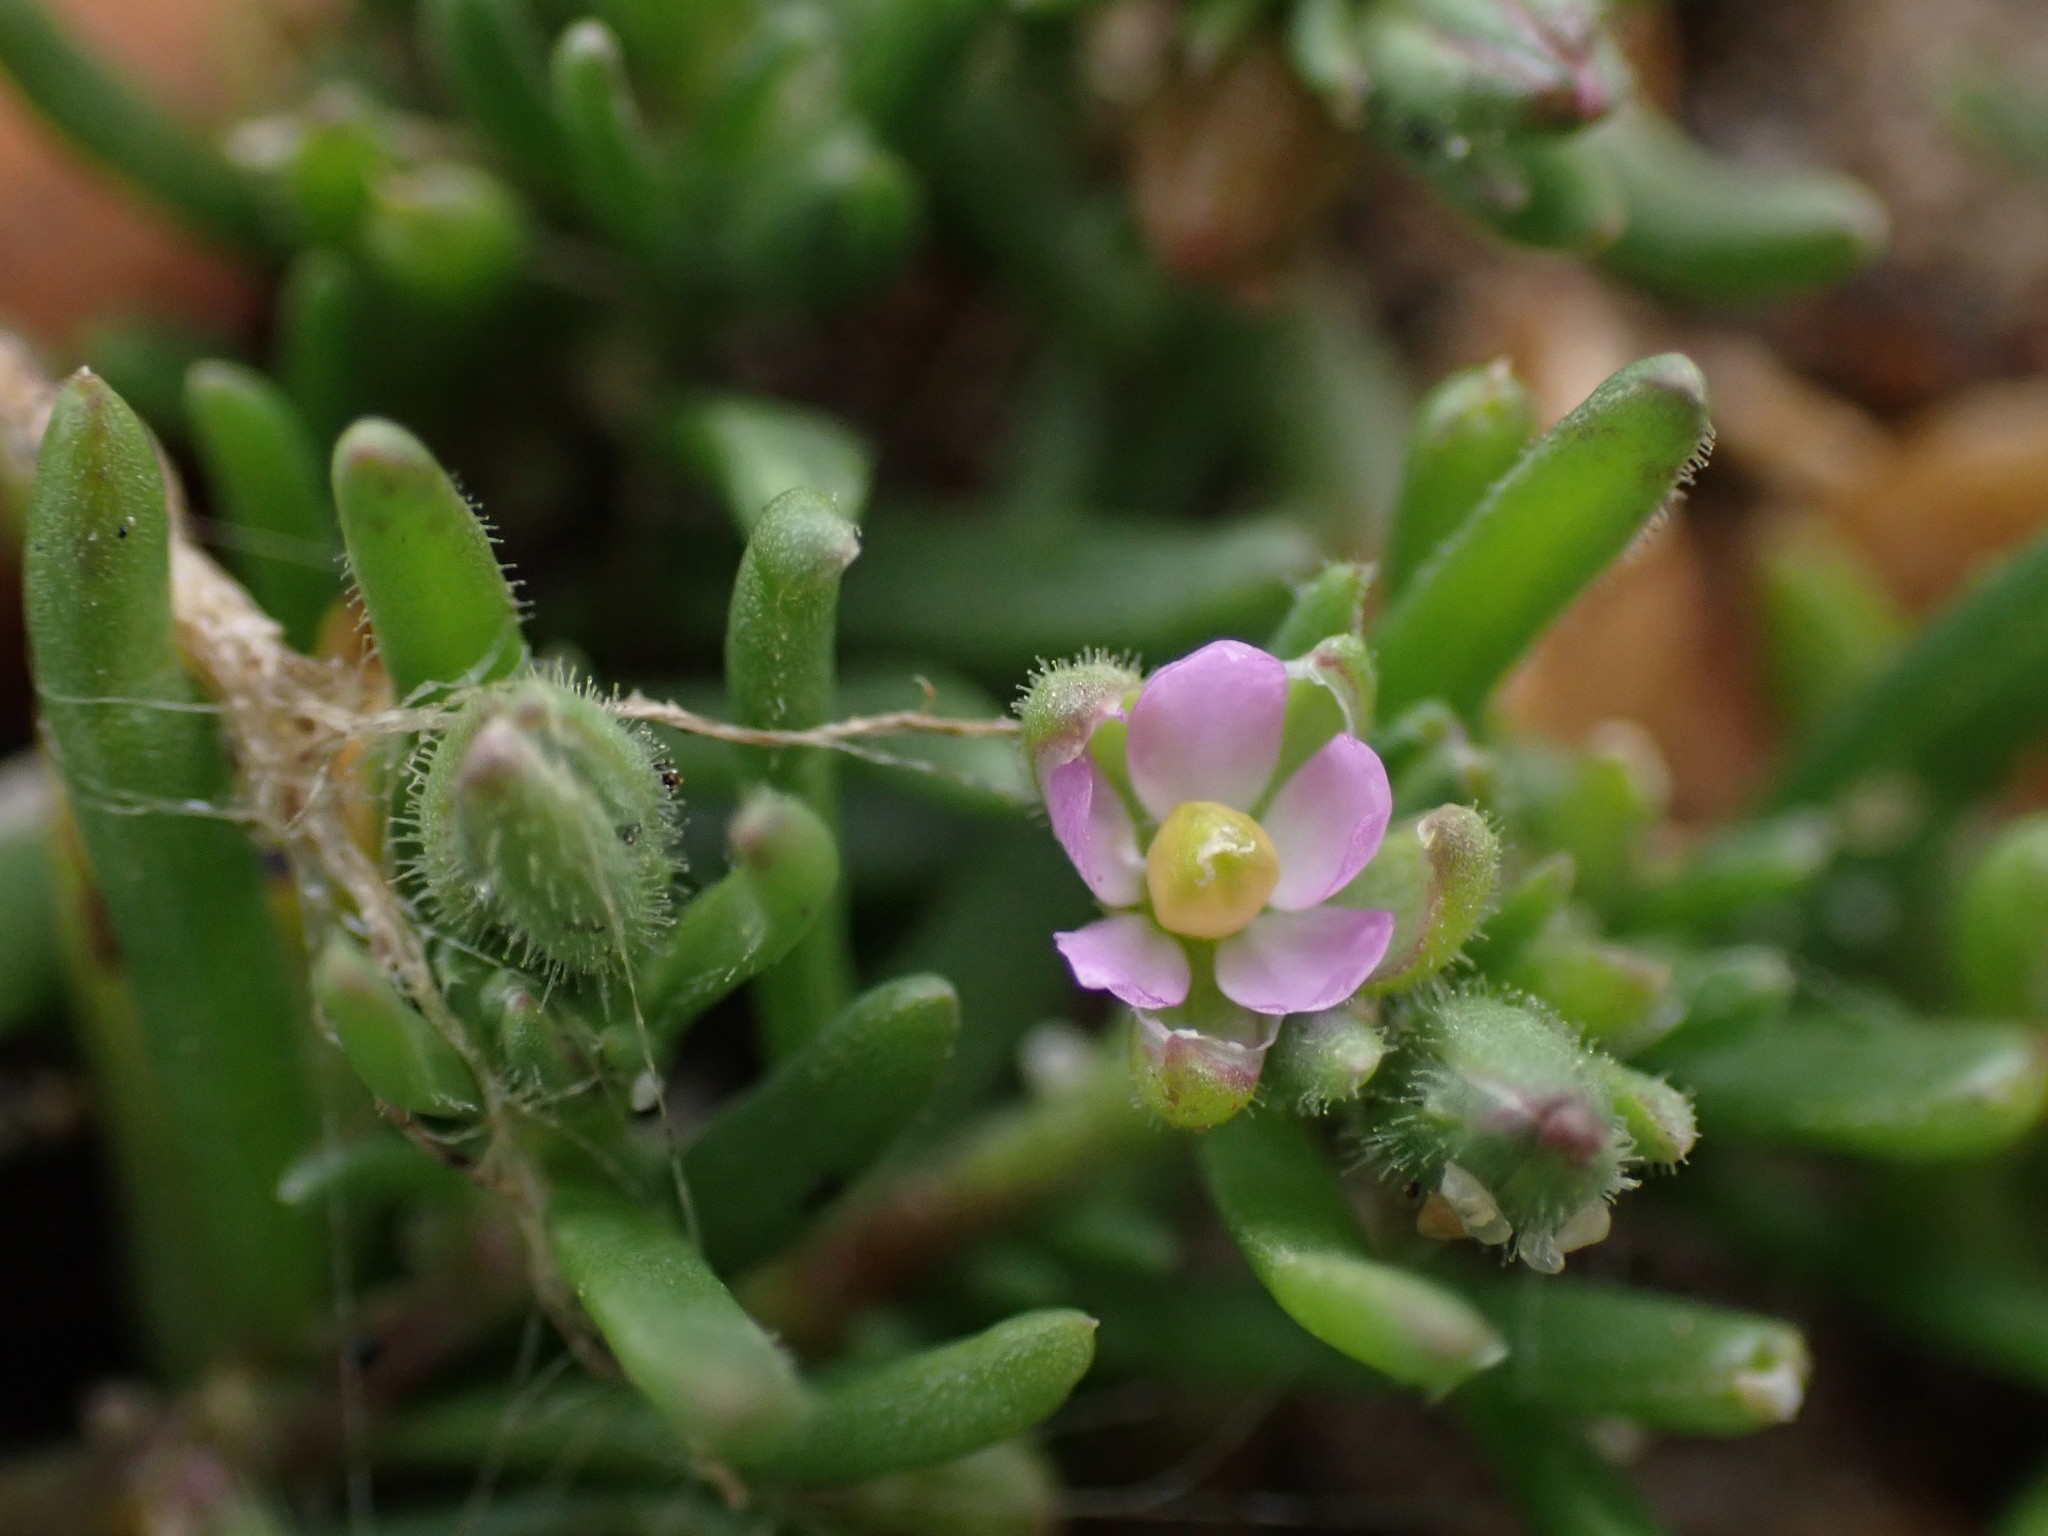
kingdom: Plantae
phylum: Tracheophyta
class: Magnoliopsida
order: Caryophyllales
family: Caryophyllaceae
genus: Spergularia
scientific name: Spergularia marina
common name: Lesser sea-spurrey
